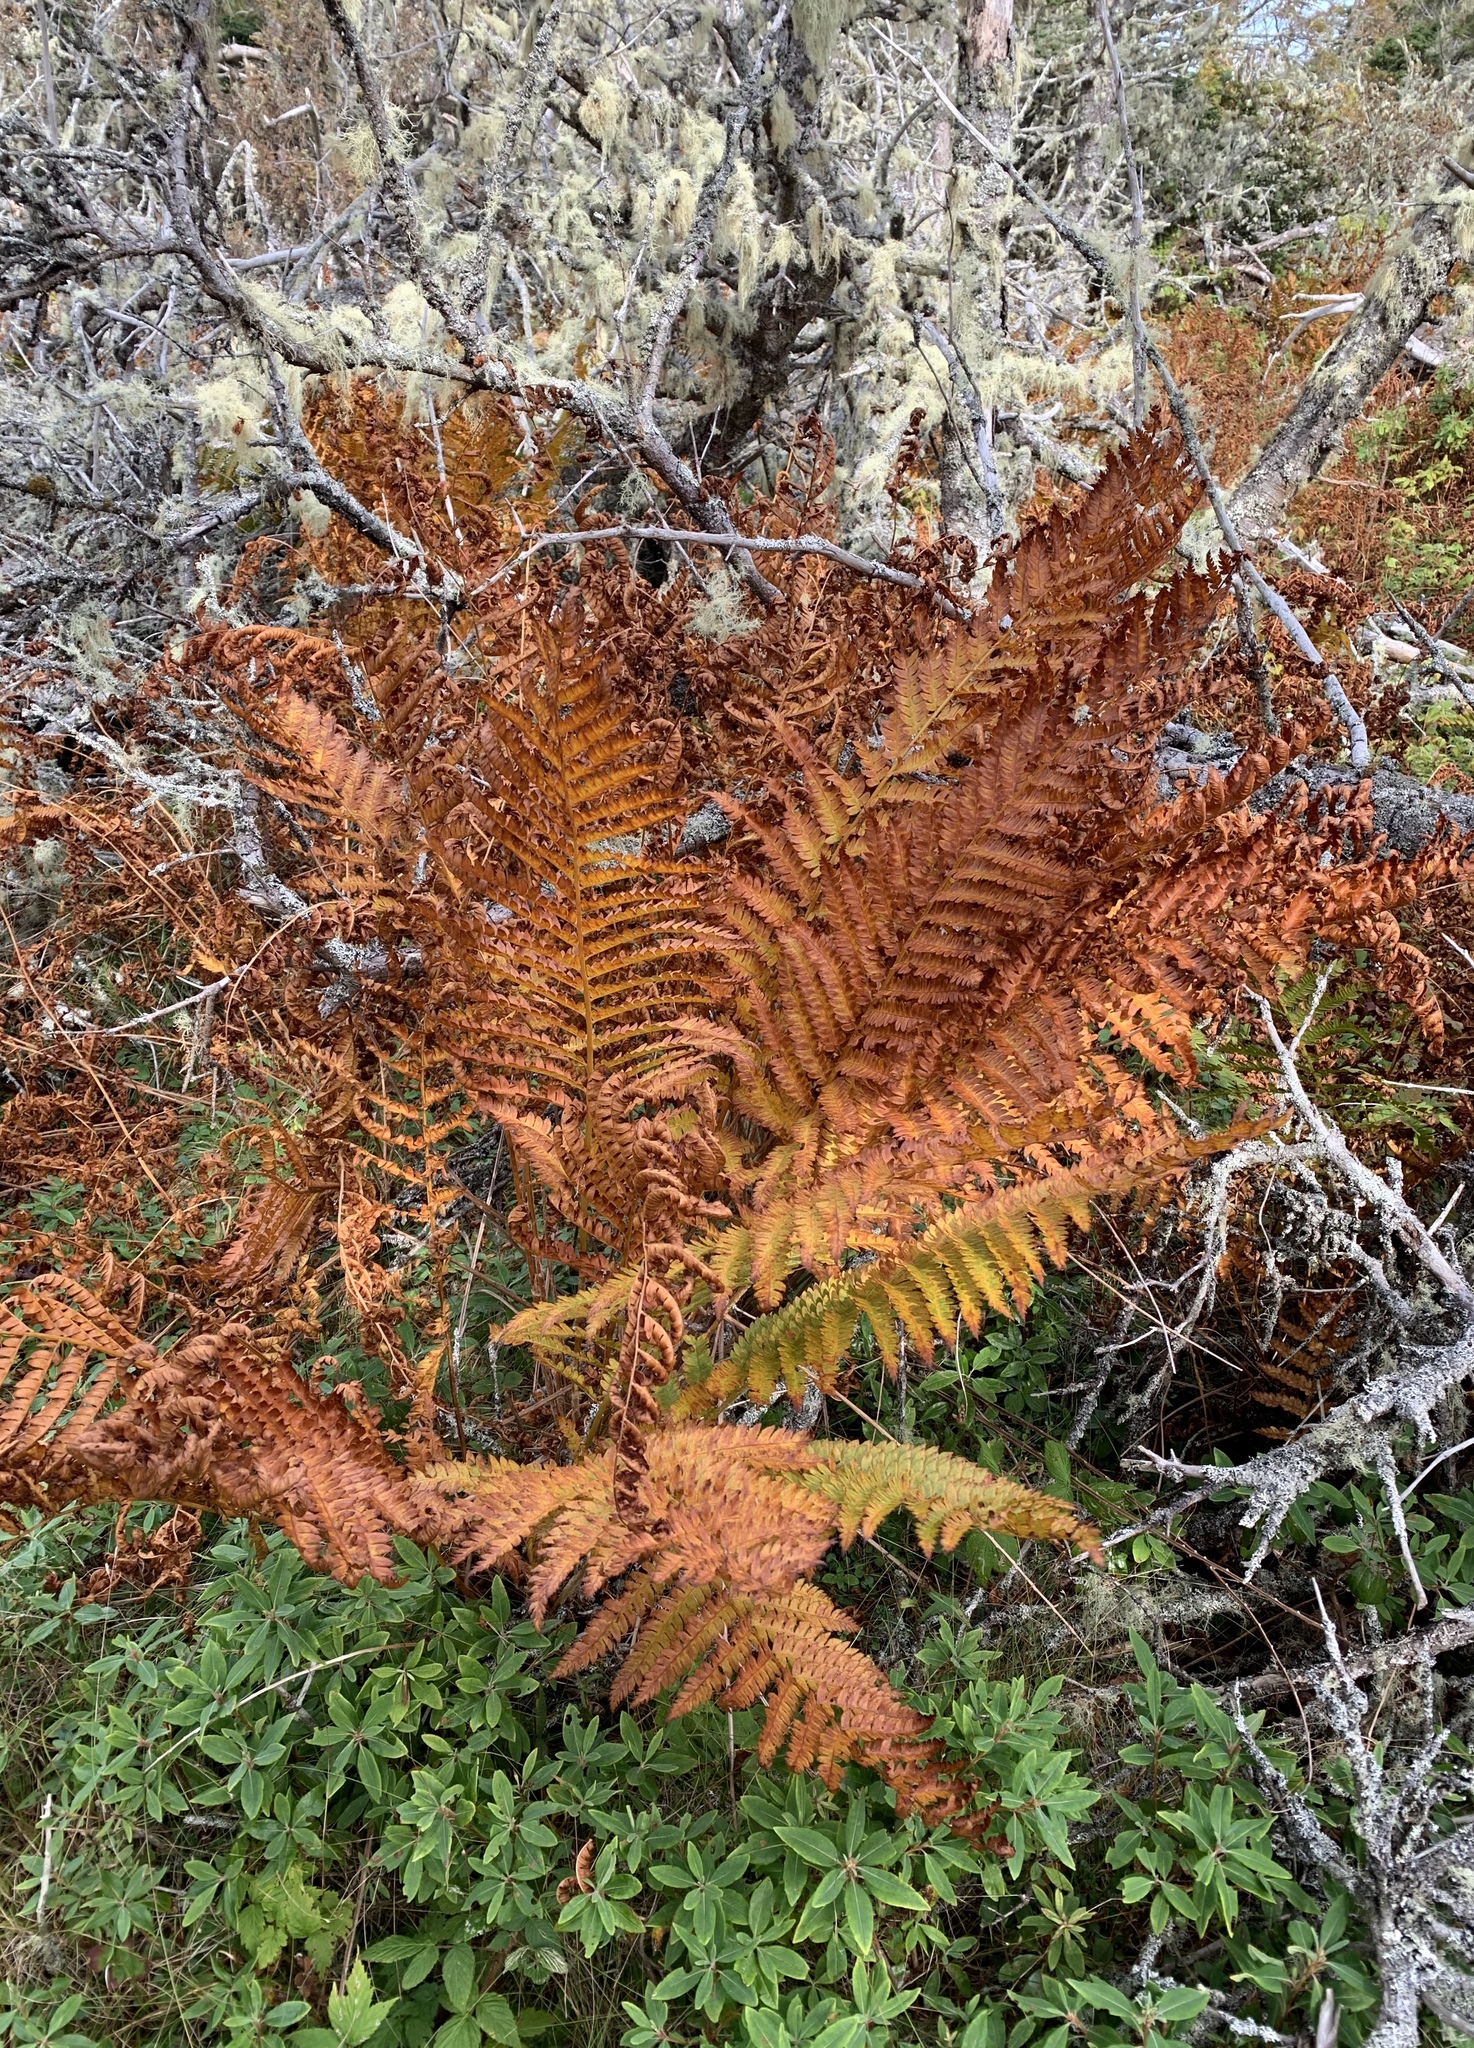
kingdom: Plantae
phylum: Tracheophyta
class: Polypodiopsida
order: Osmundales
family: Osmundaceae
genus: Osmundastrum
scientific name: Osmundastrum cinnamomeum
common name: Cinnamon fern
